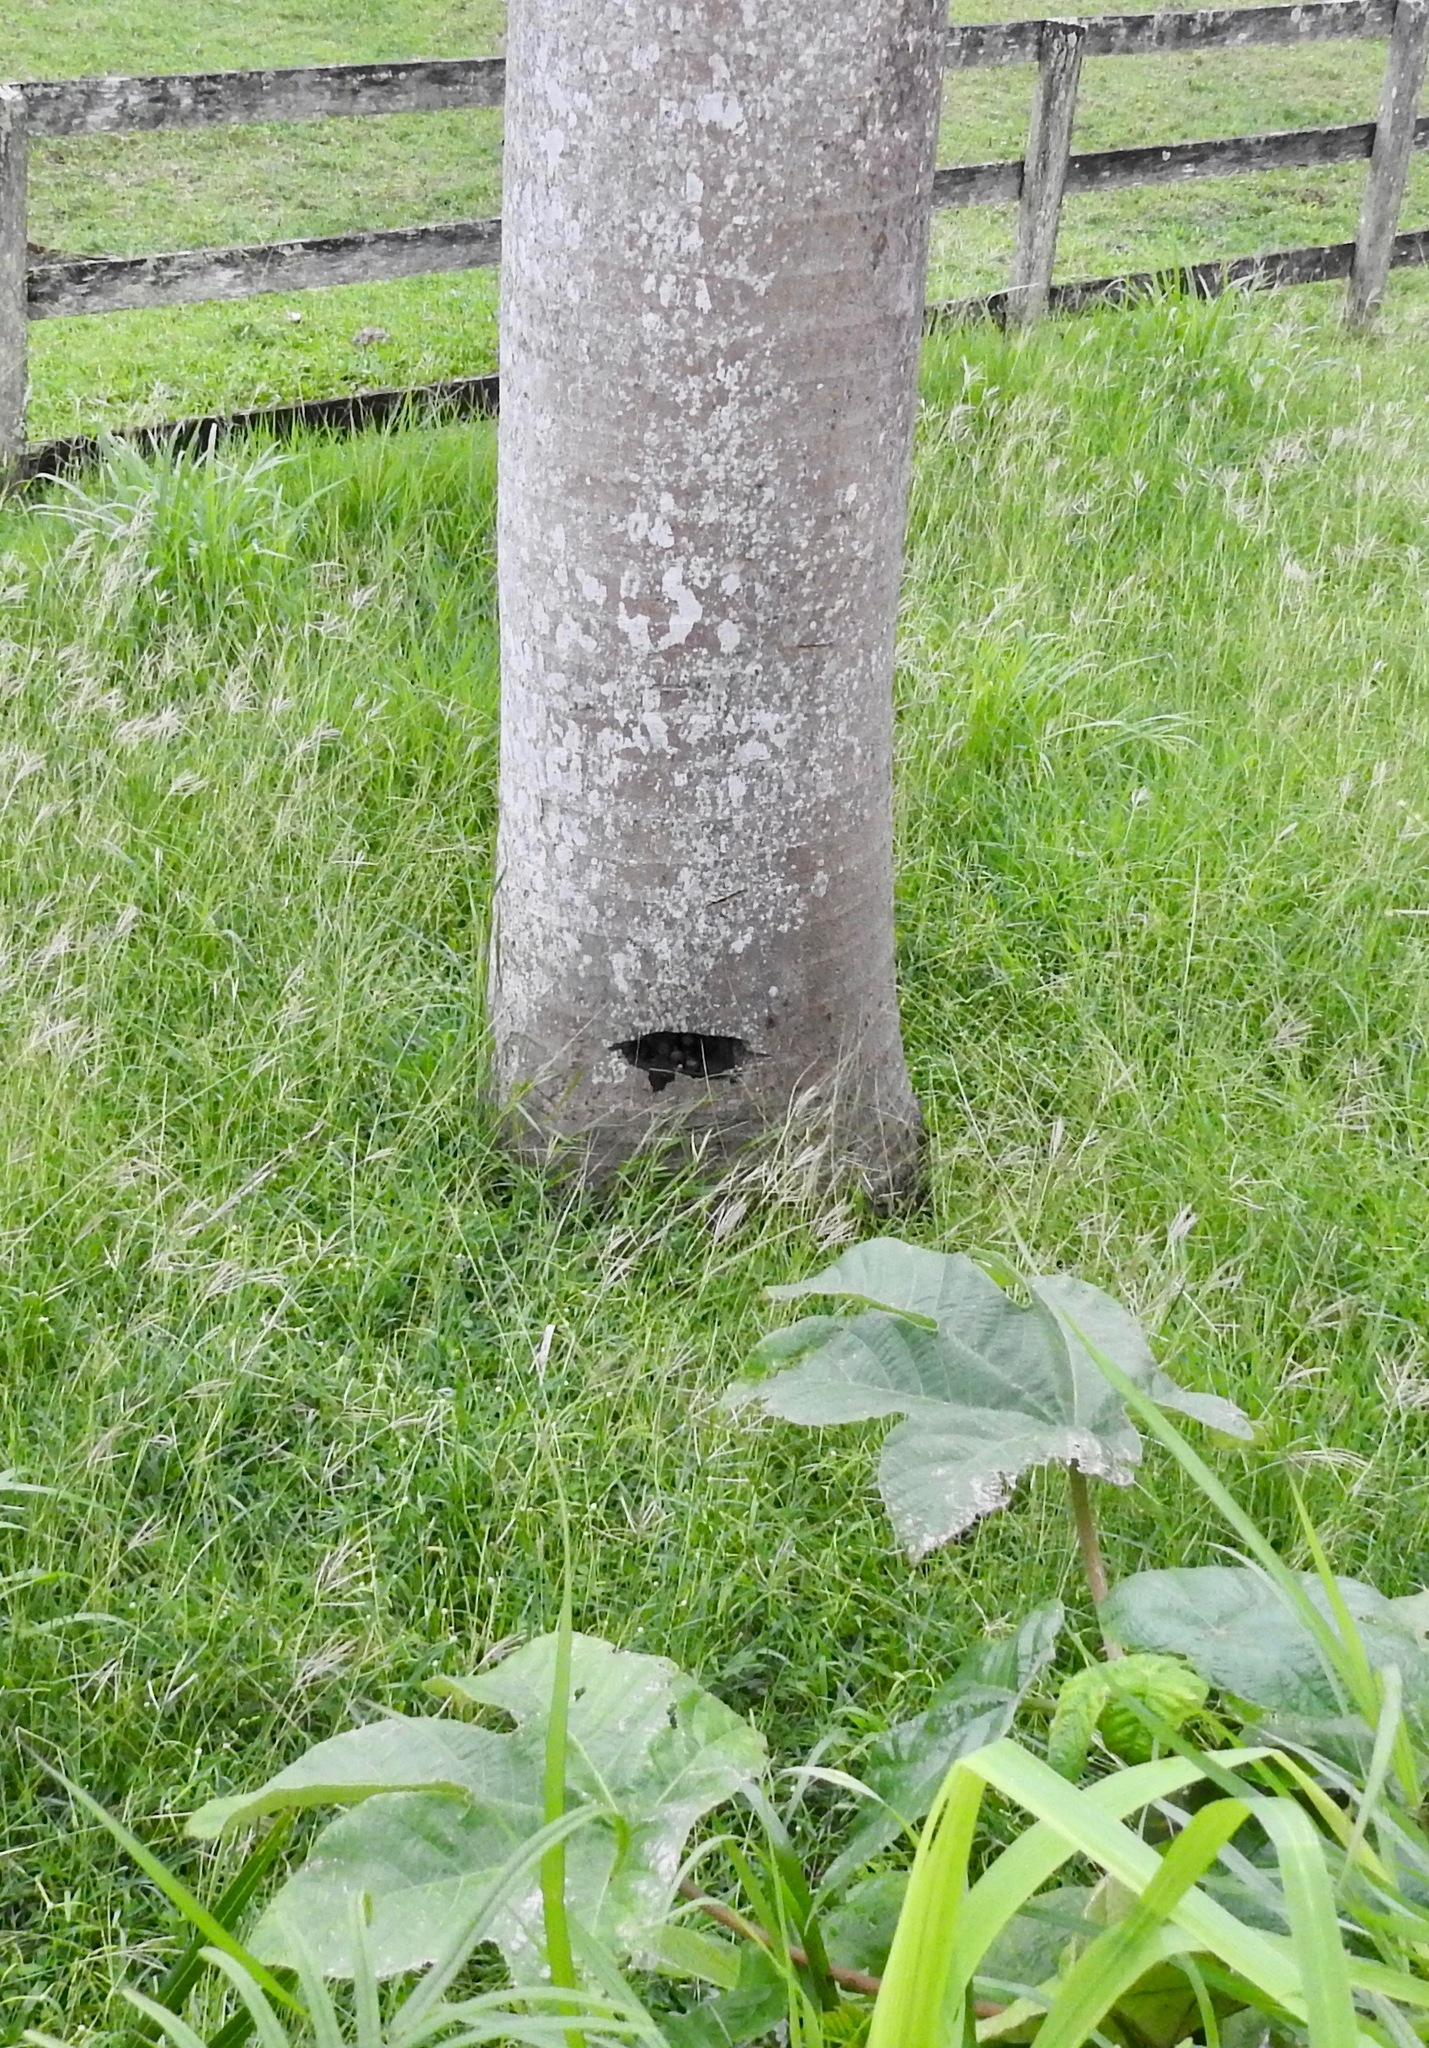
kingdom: Animalia
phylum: Mollusca
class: Gastropoda
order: Stylommatophora
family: Pleurodontidae
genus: Pleurodonte
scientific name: Pleurodonte isabella
